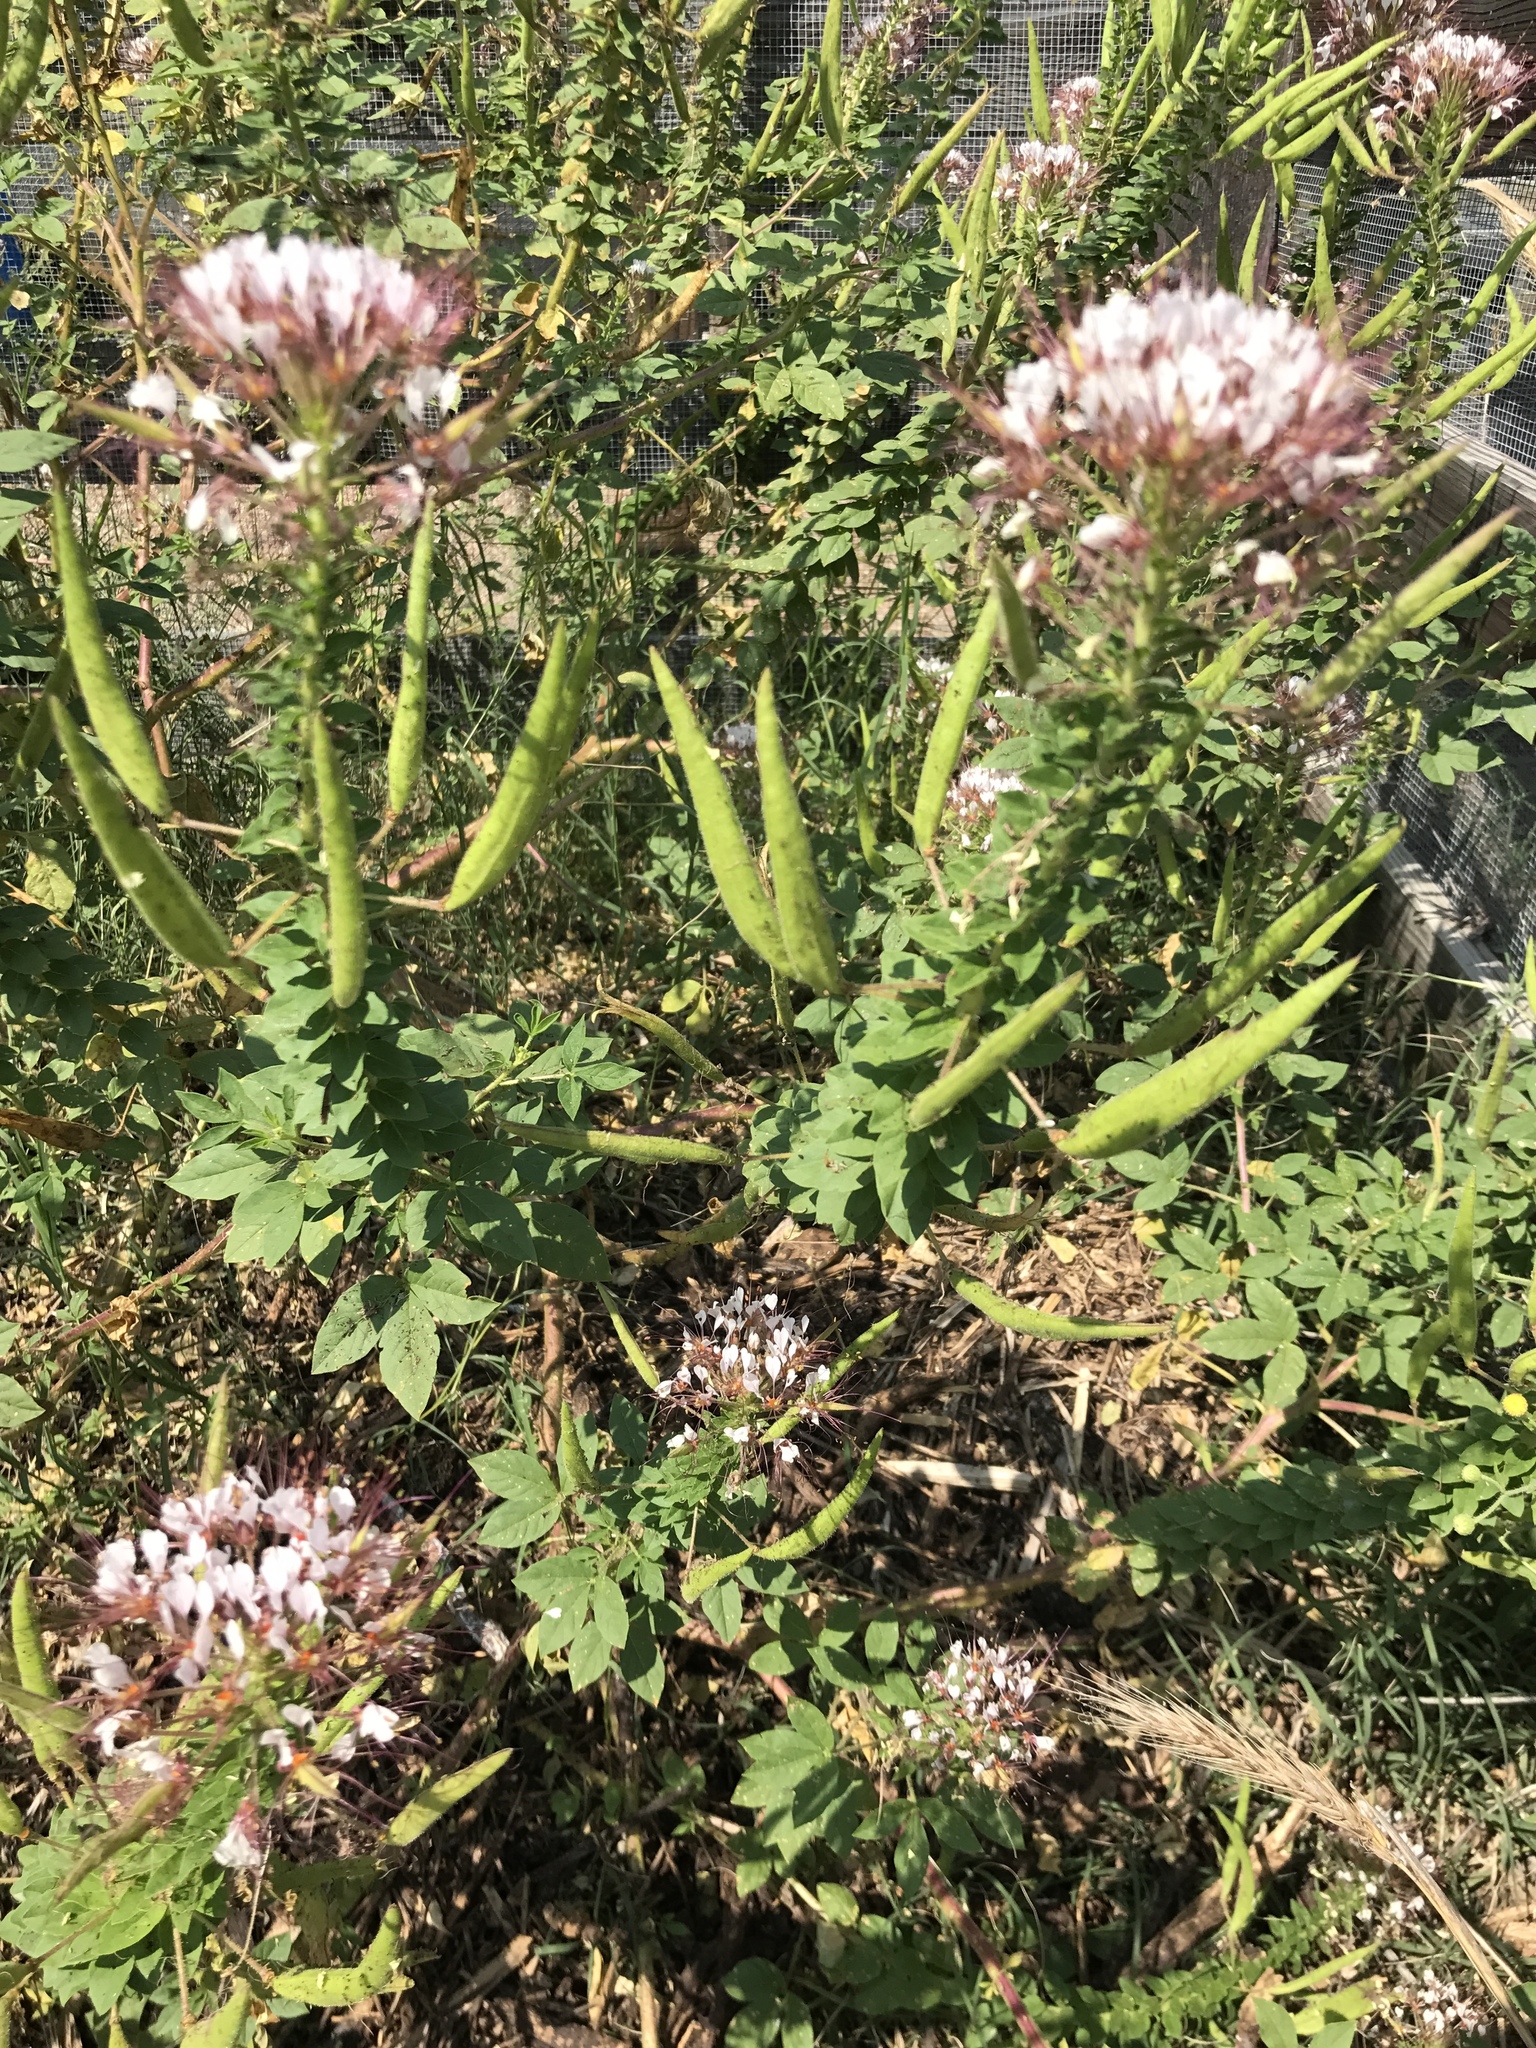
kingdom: Plantae
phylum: Tracheophyta
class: Magnoliopsida
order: Brassicales
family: Cleomaceae
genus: Polanisia
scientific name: Polanisia dodecandra
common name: Clammyweed
